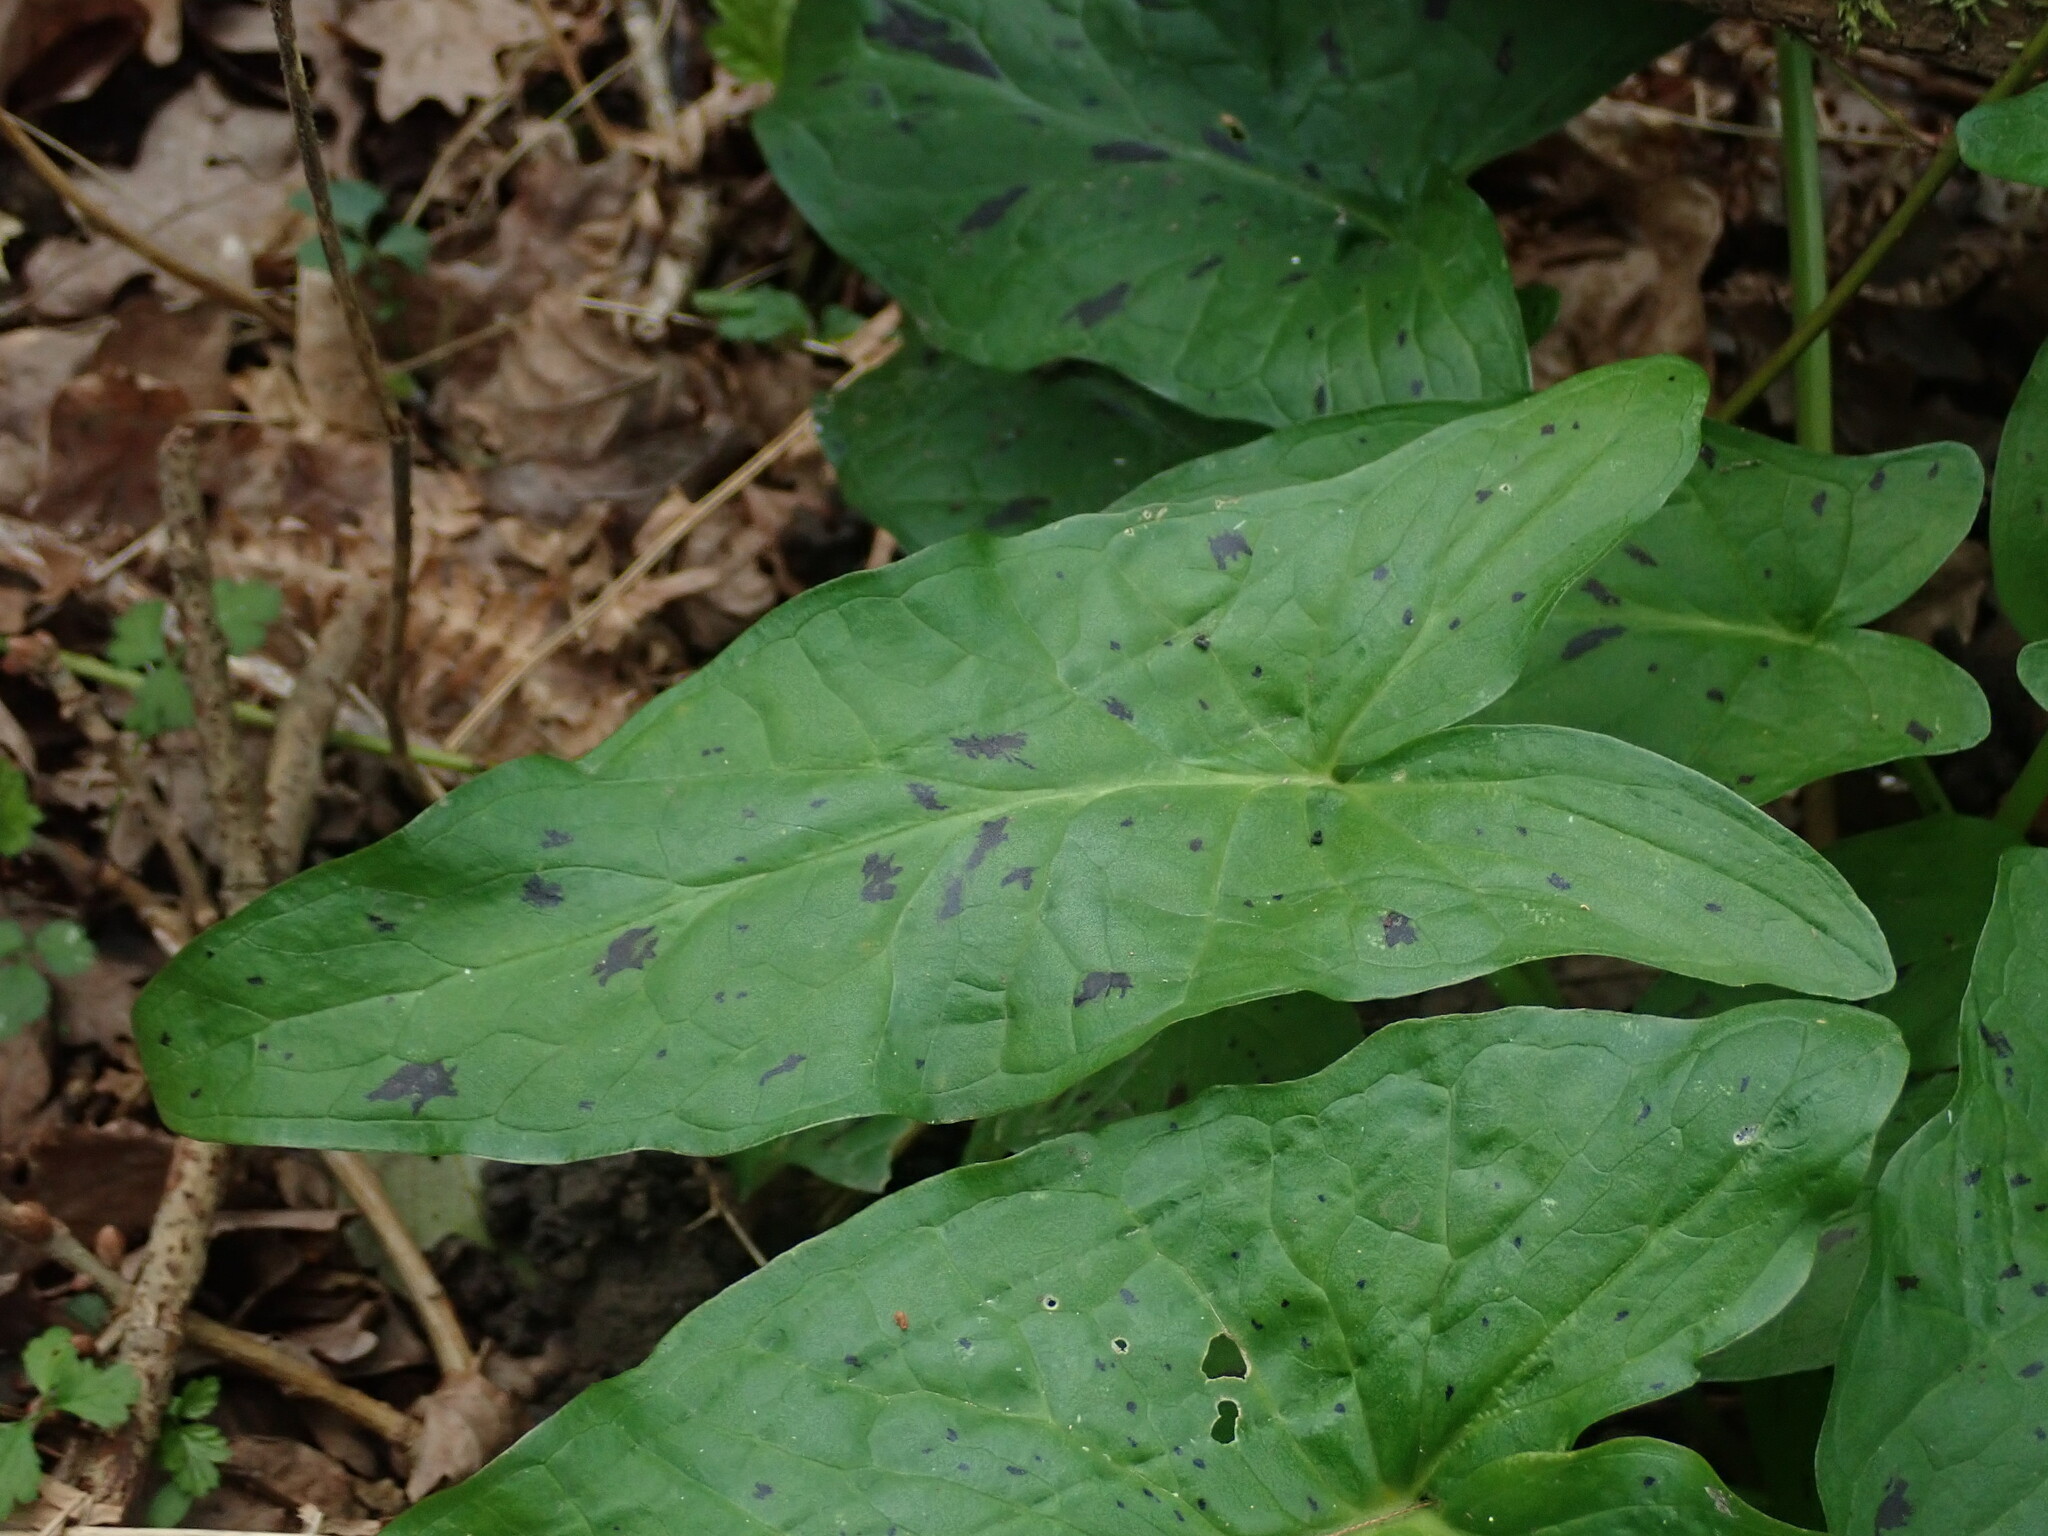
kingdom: Plantae
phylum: Tracheophyta
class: Liliopsida
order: Alismatales
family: Araceae
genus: Arum
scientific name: Arum maculatum
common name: Lords-and-ladies
